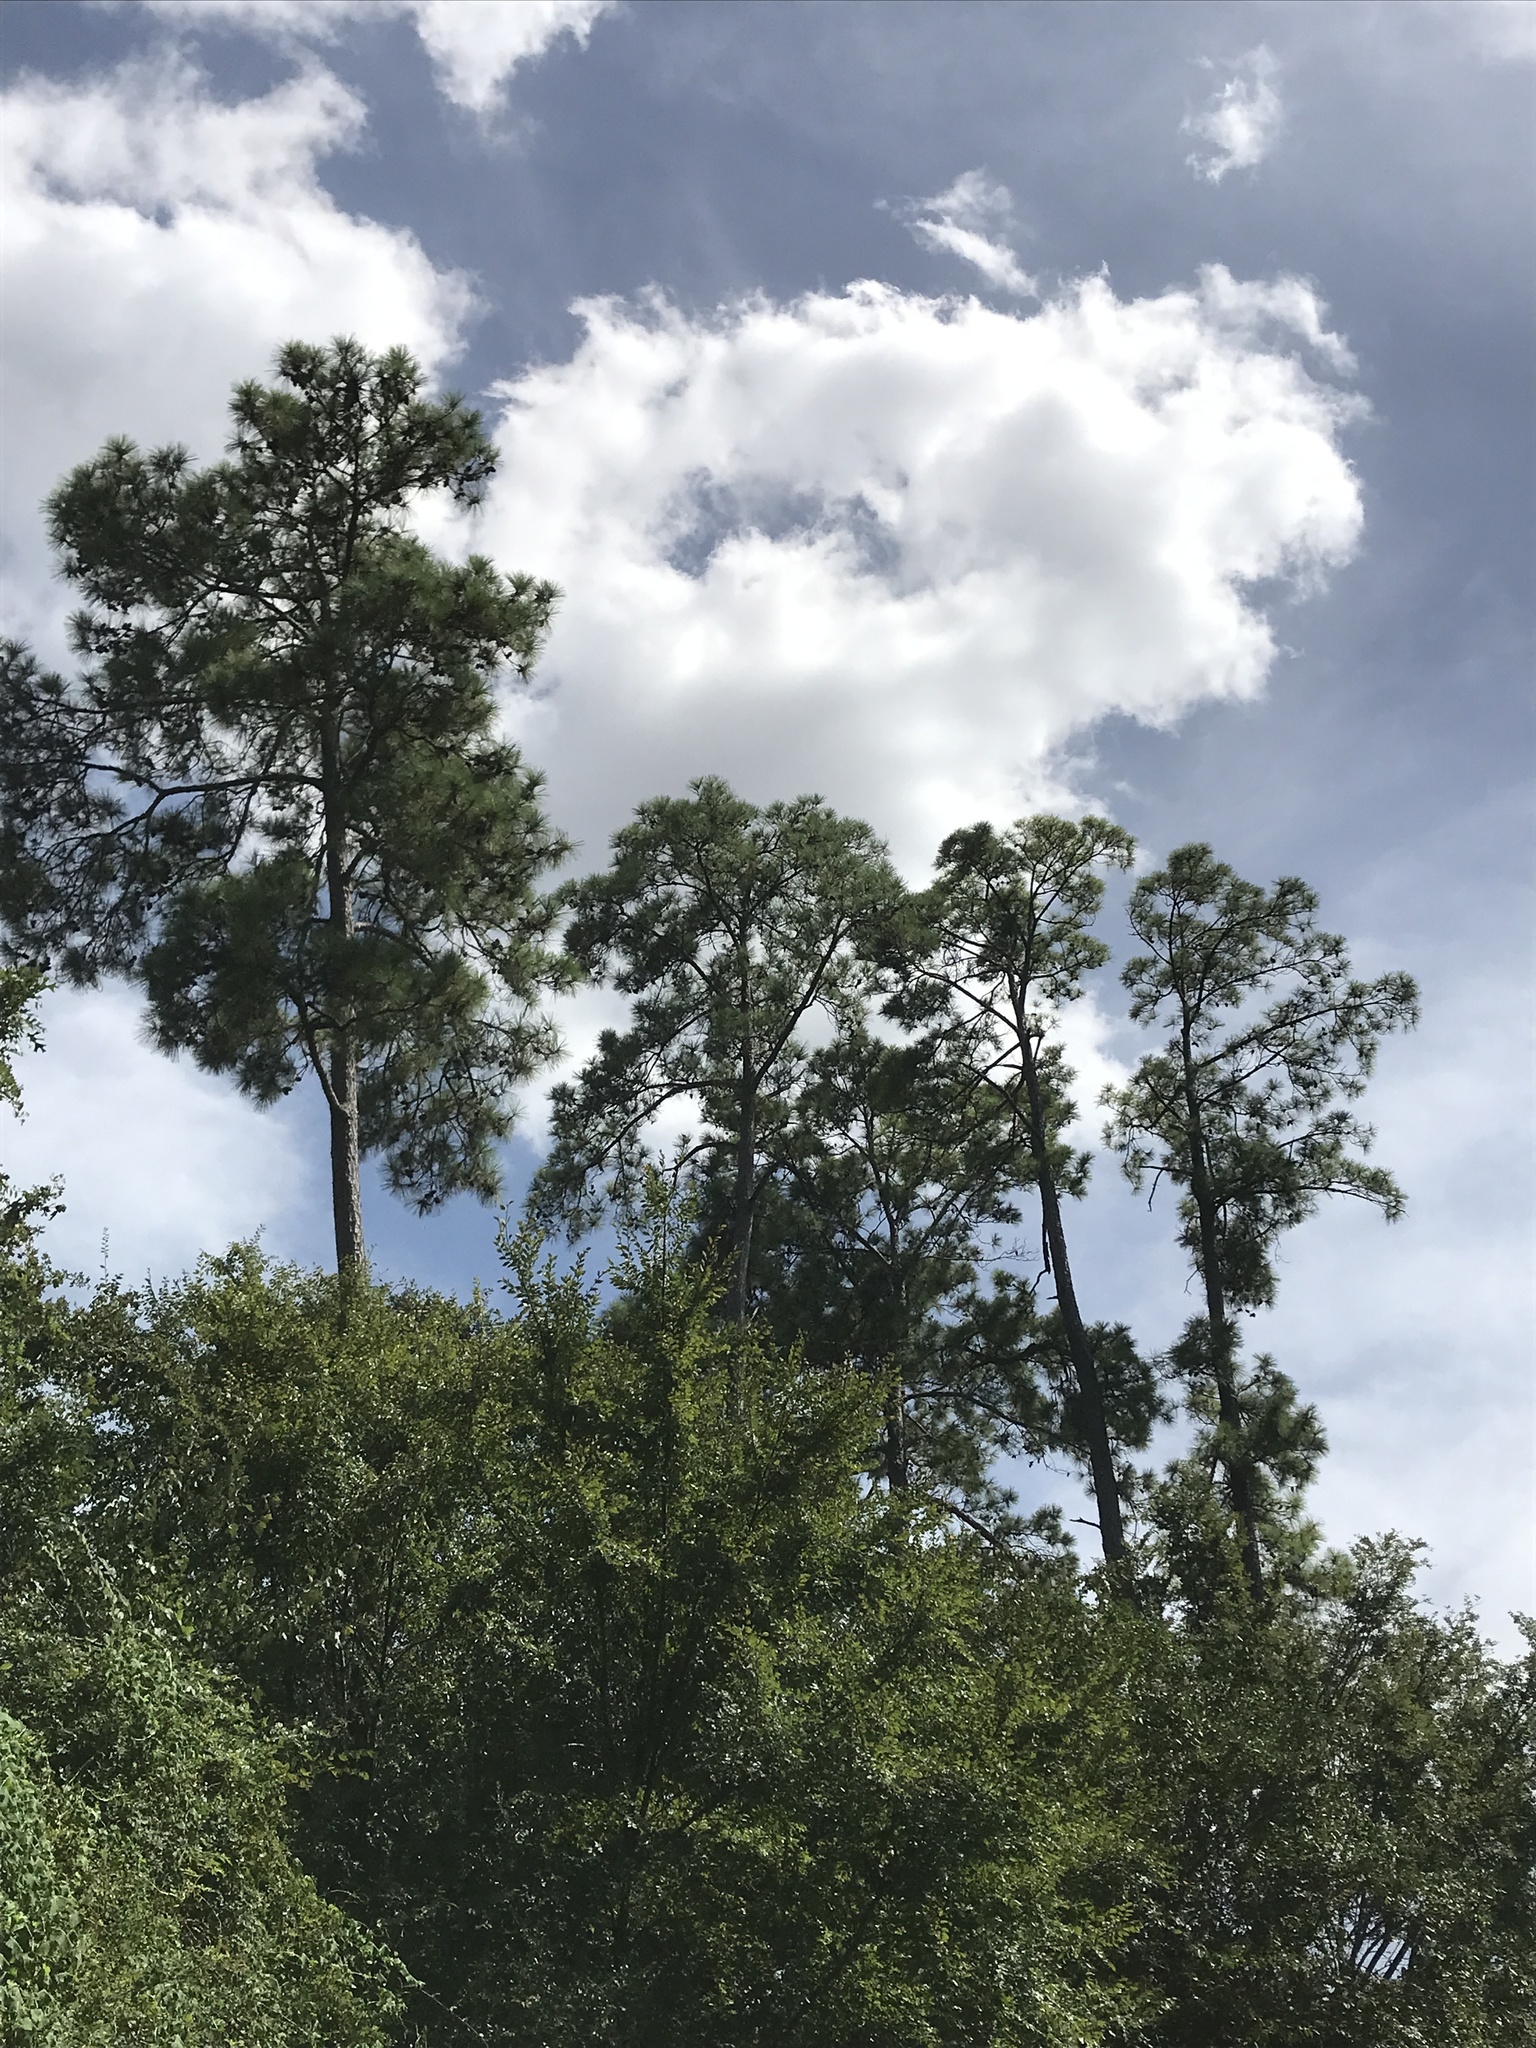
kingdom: Plantae
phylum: Tracheophyta
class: Pinopsida
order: Pinales
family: Pinaceae
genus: Pinus
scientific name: Pinus taeda
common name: Loblolly pine
